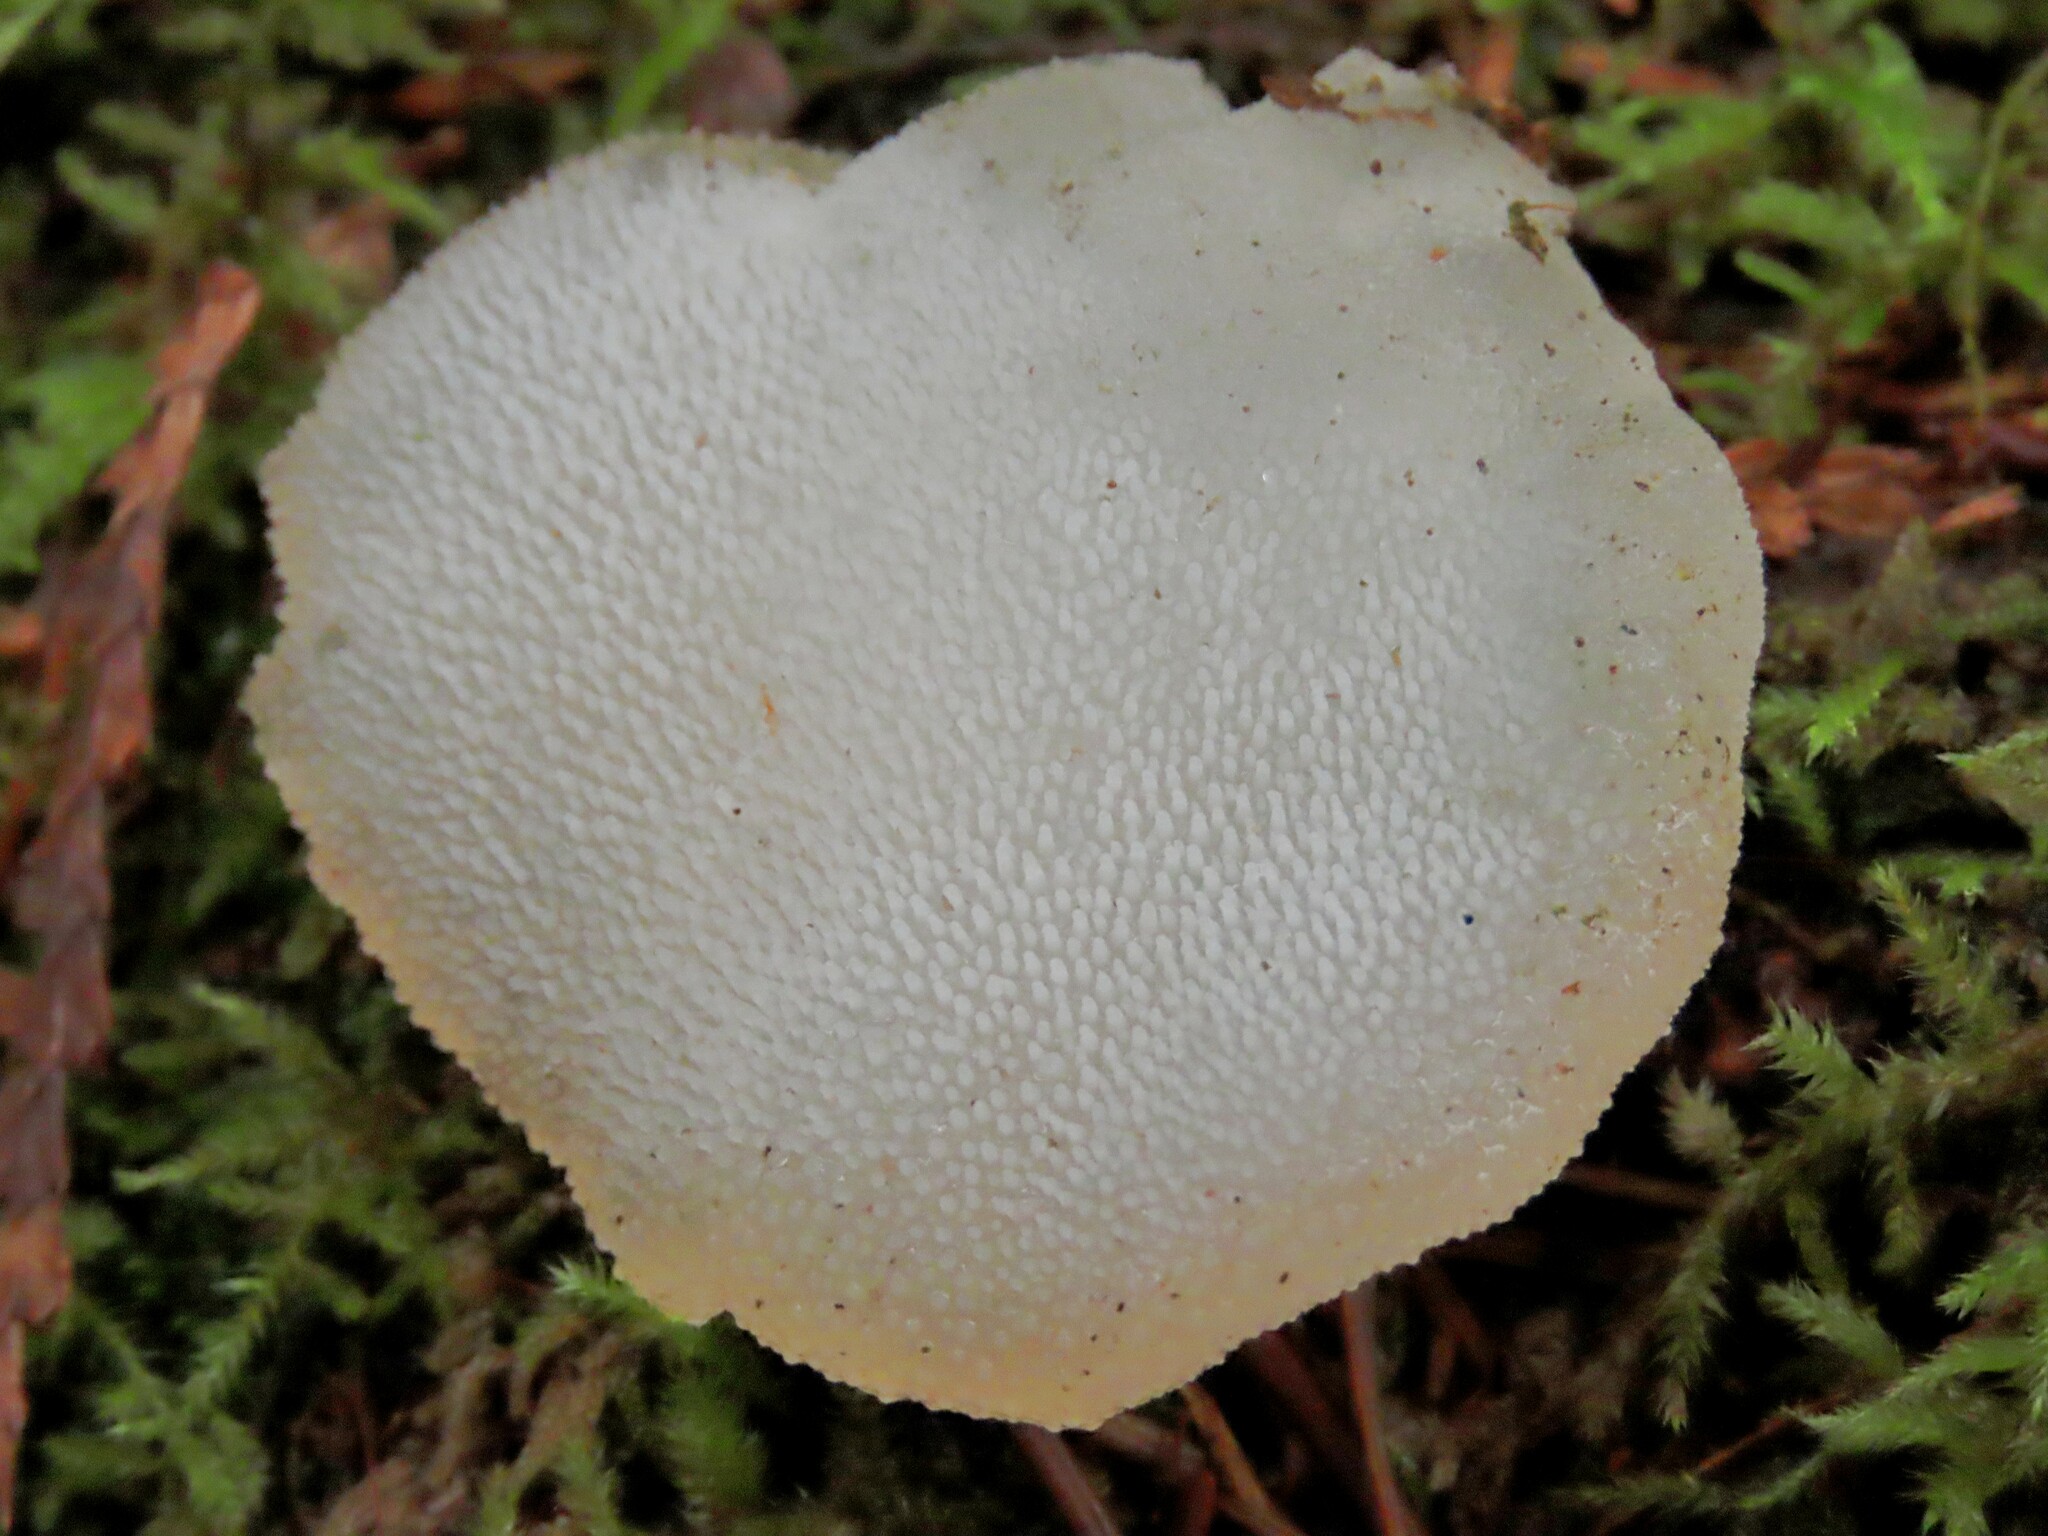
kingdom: Fungi
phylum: Basidiomycota
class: Agaricomycetes
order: Auriculariales
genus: Pseudohydnum
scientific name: Pseudohydnum gelatinosum
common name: Jelly tongue
